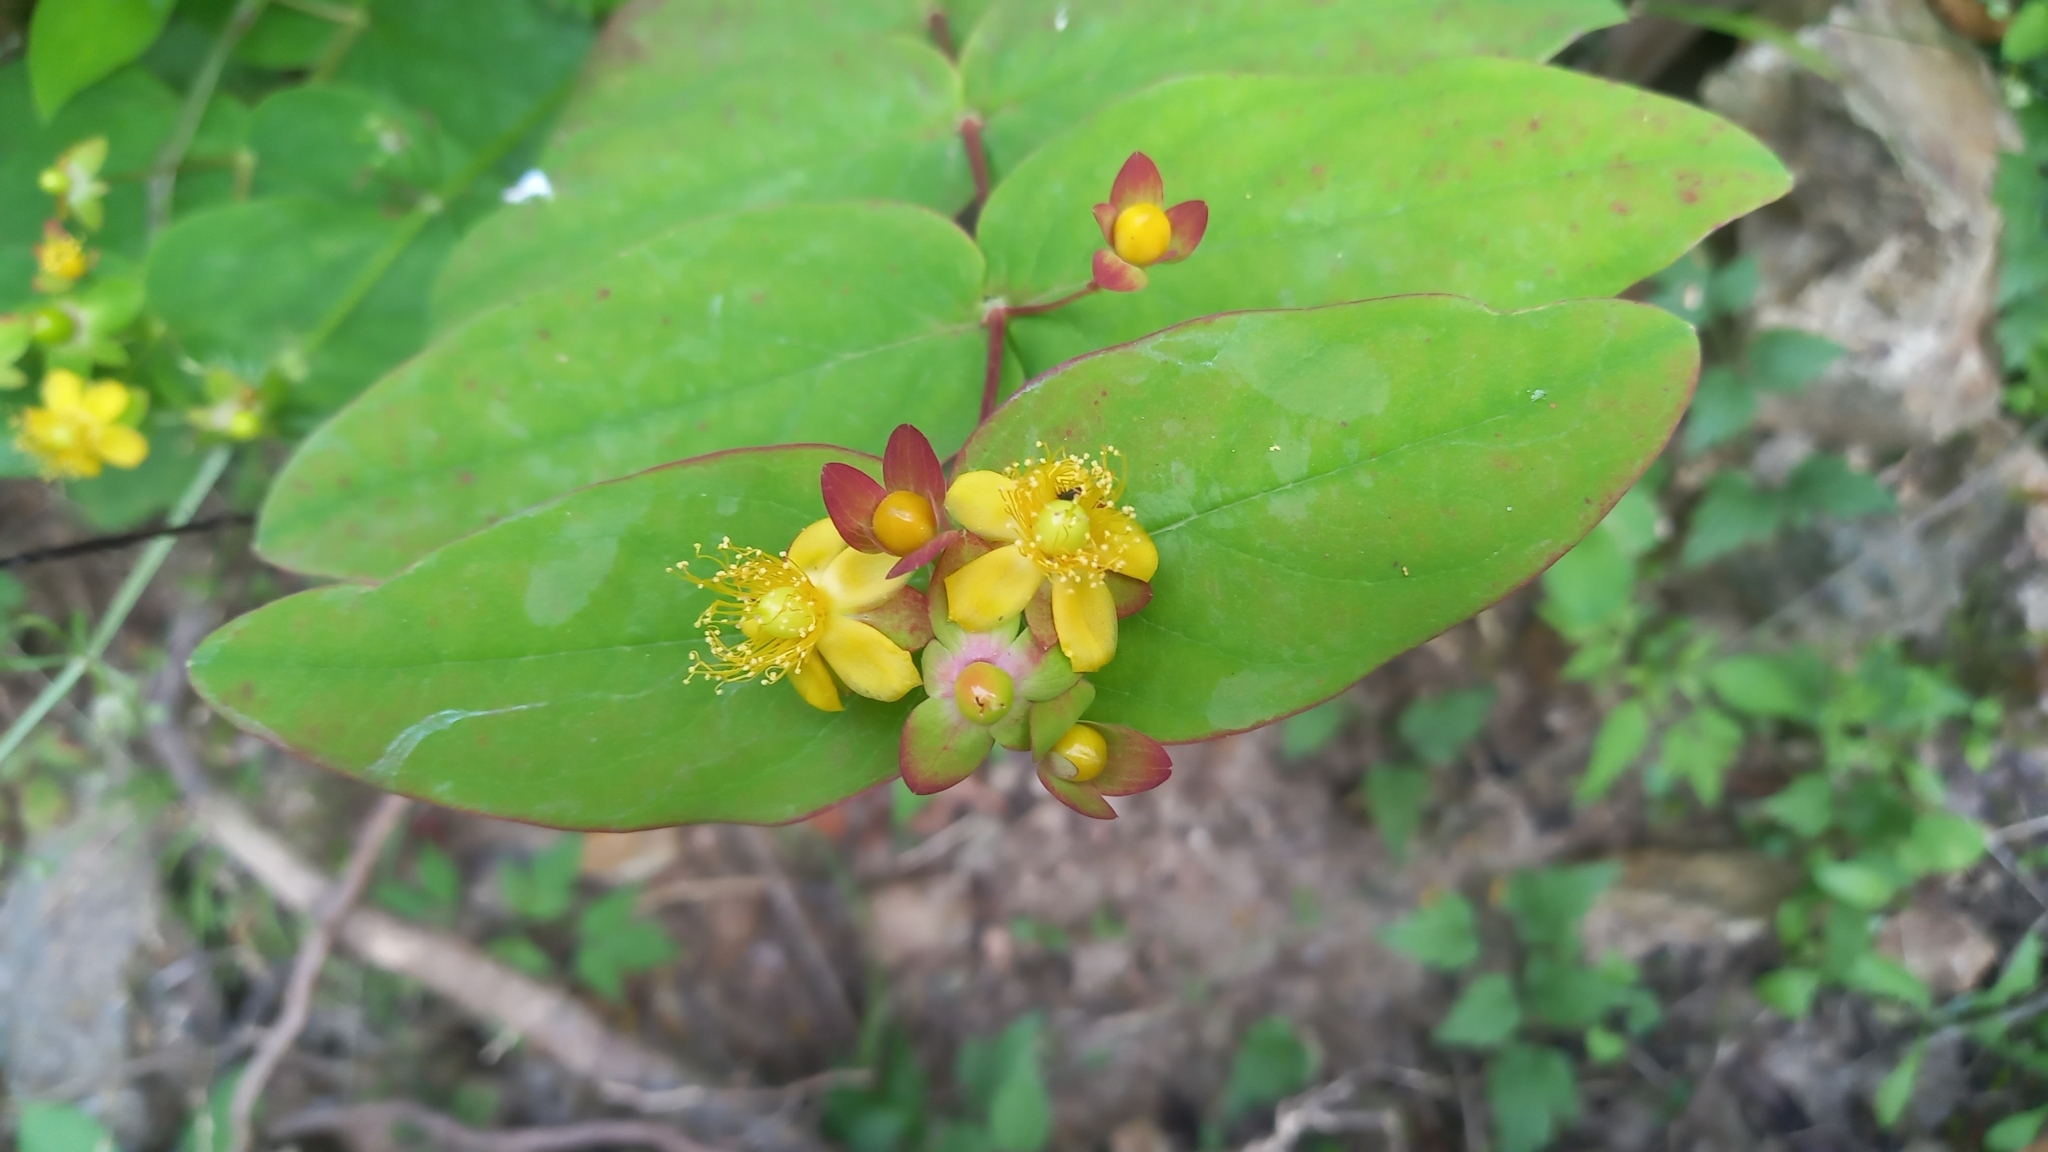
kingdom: Plantae
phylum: Tracheophyta
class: Magnoliopsida
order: Malpighiales
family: Hypericaceae
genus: Hypericum
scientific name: Hypericum androsaemum
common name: Sweet-amber
